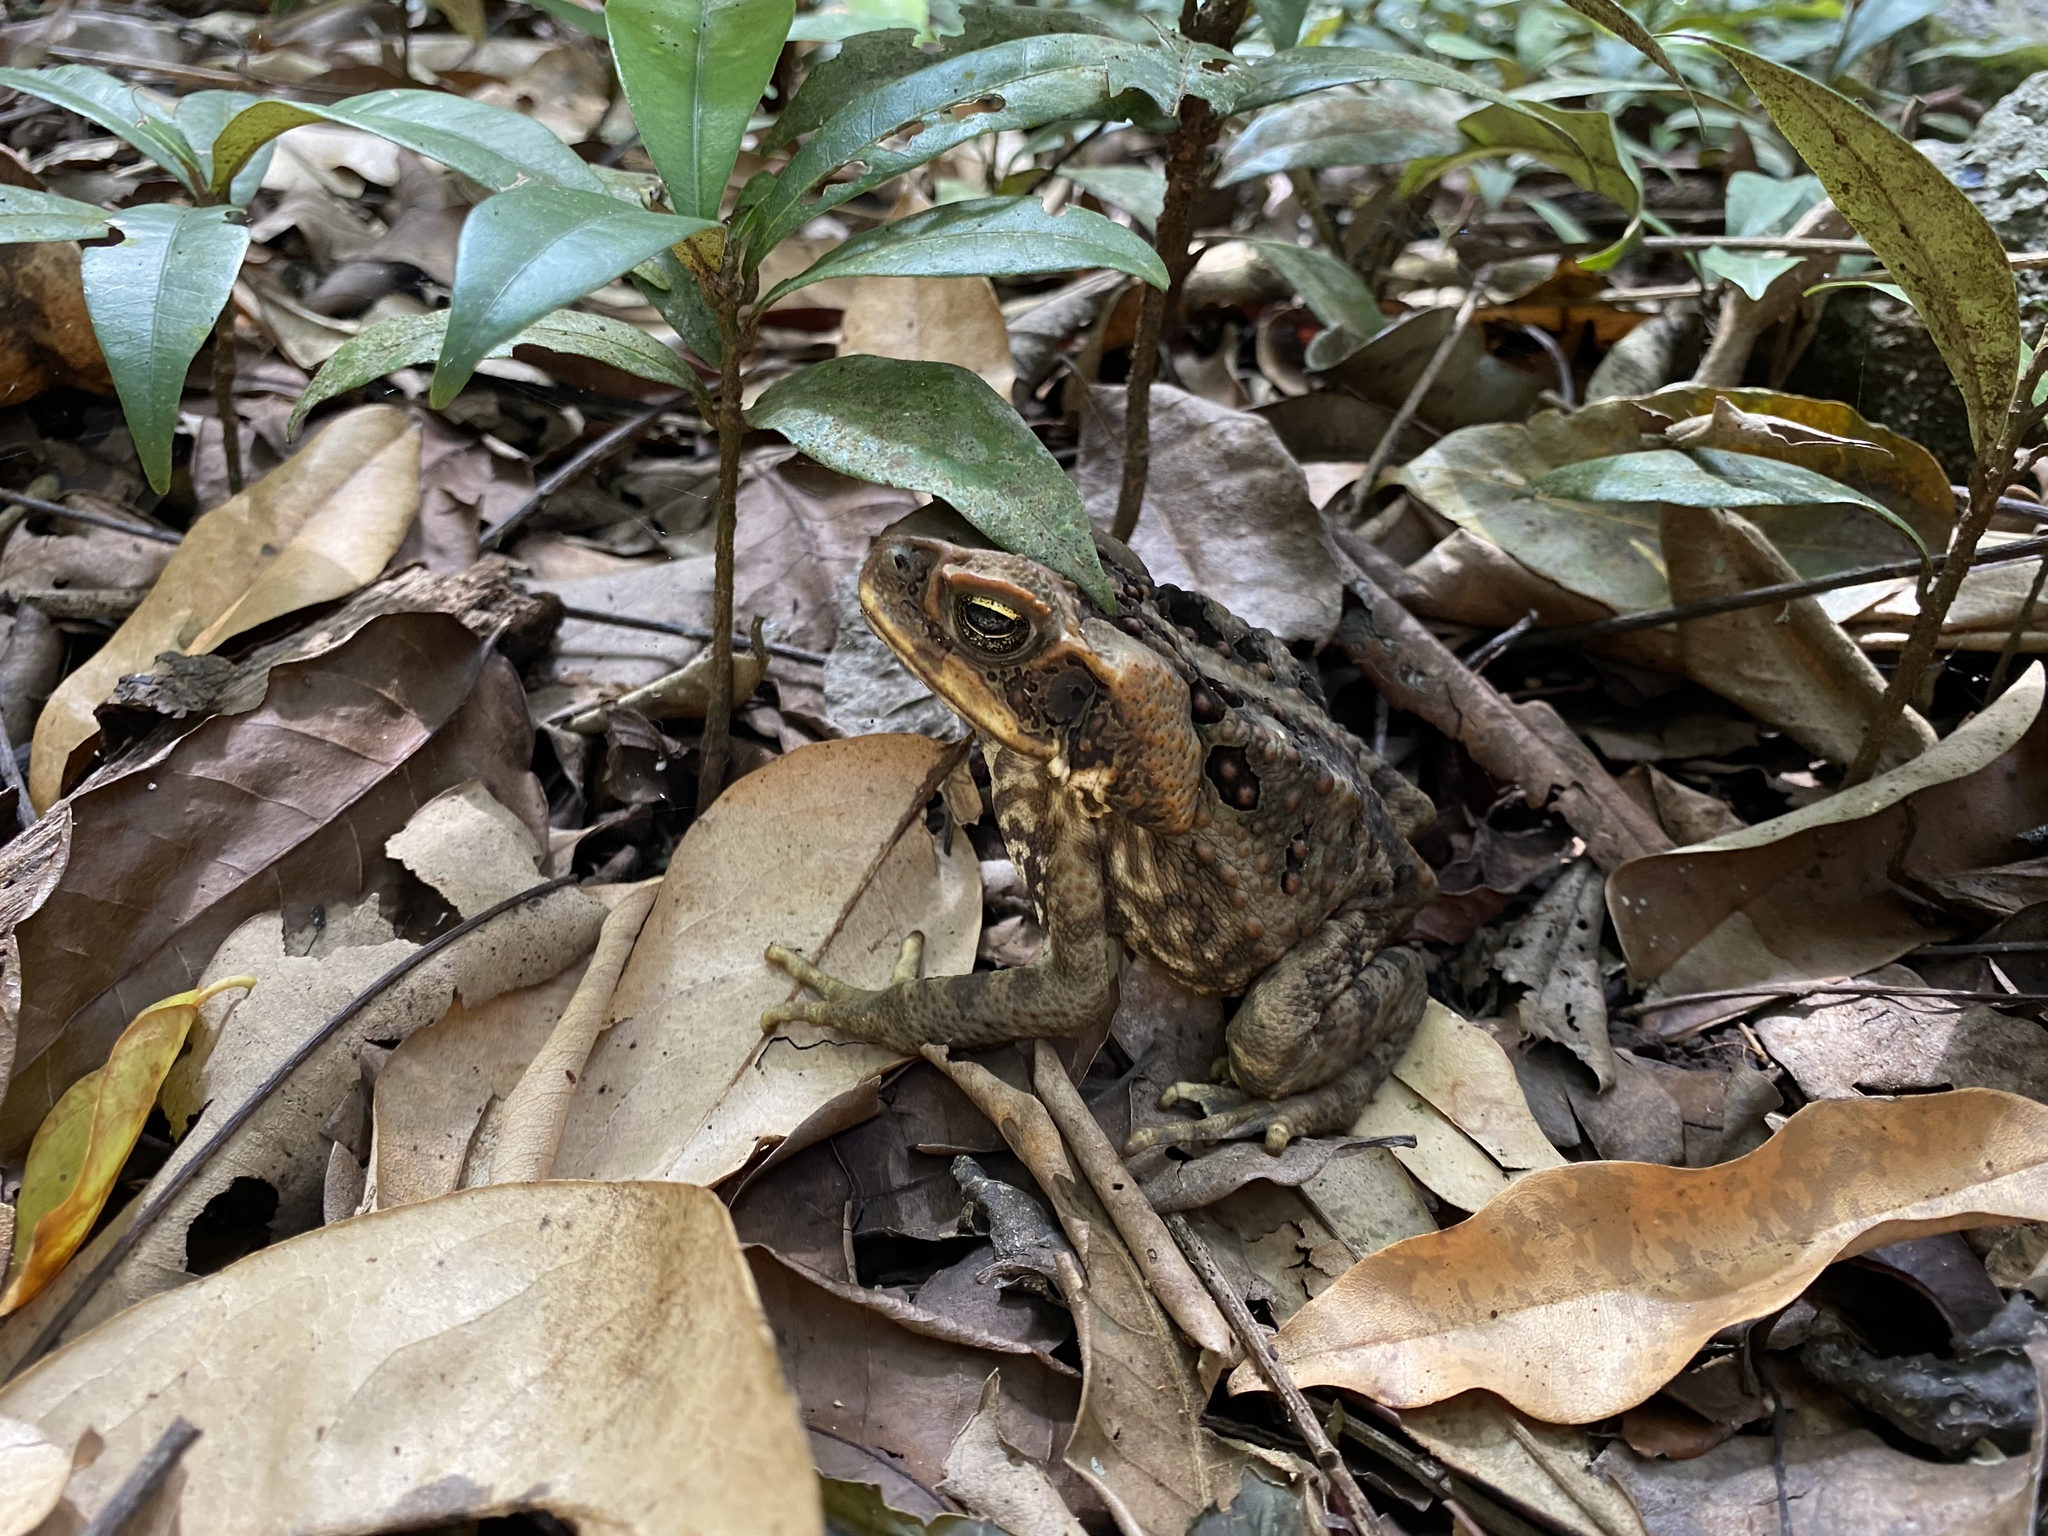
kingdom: Animalia
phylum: Chordata
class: Amphibia
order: Anura
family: Bufonidae
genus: Rhinella
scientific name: Rhinella marina
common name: Cane toad
